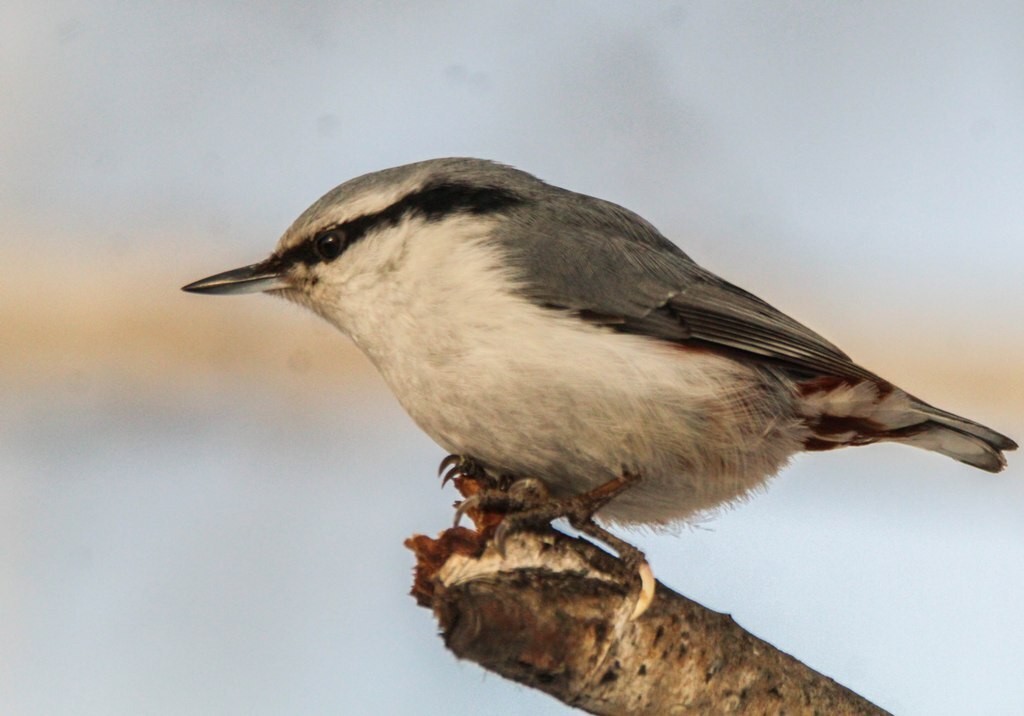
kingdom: Animalia
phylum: Chordata
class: Aves
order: Passeriformes
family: Sittidae
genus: Sitta
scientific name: Sitta europaea
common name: Eurasian nuthatch
